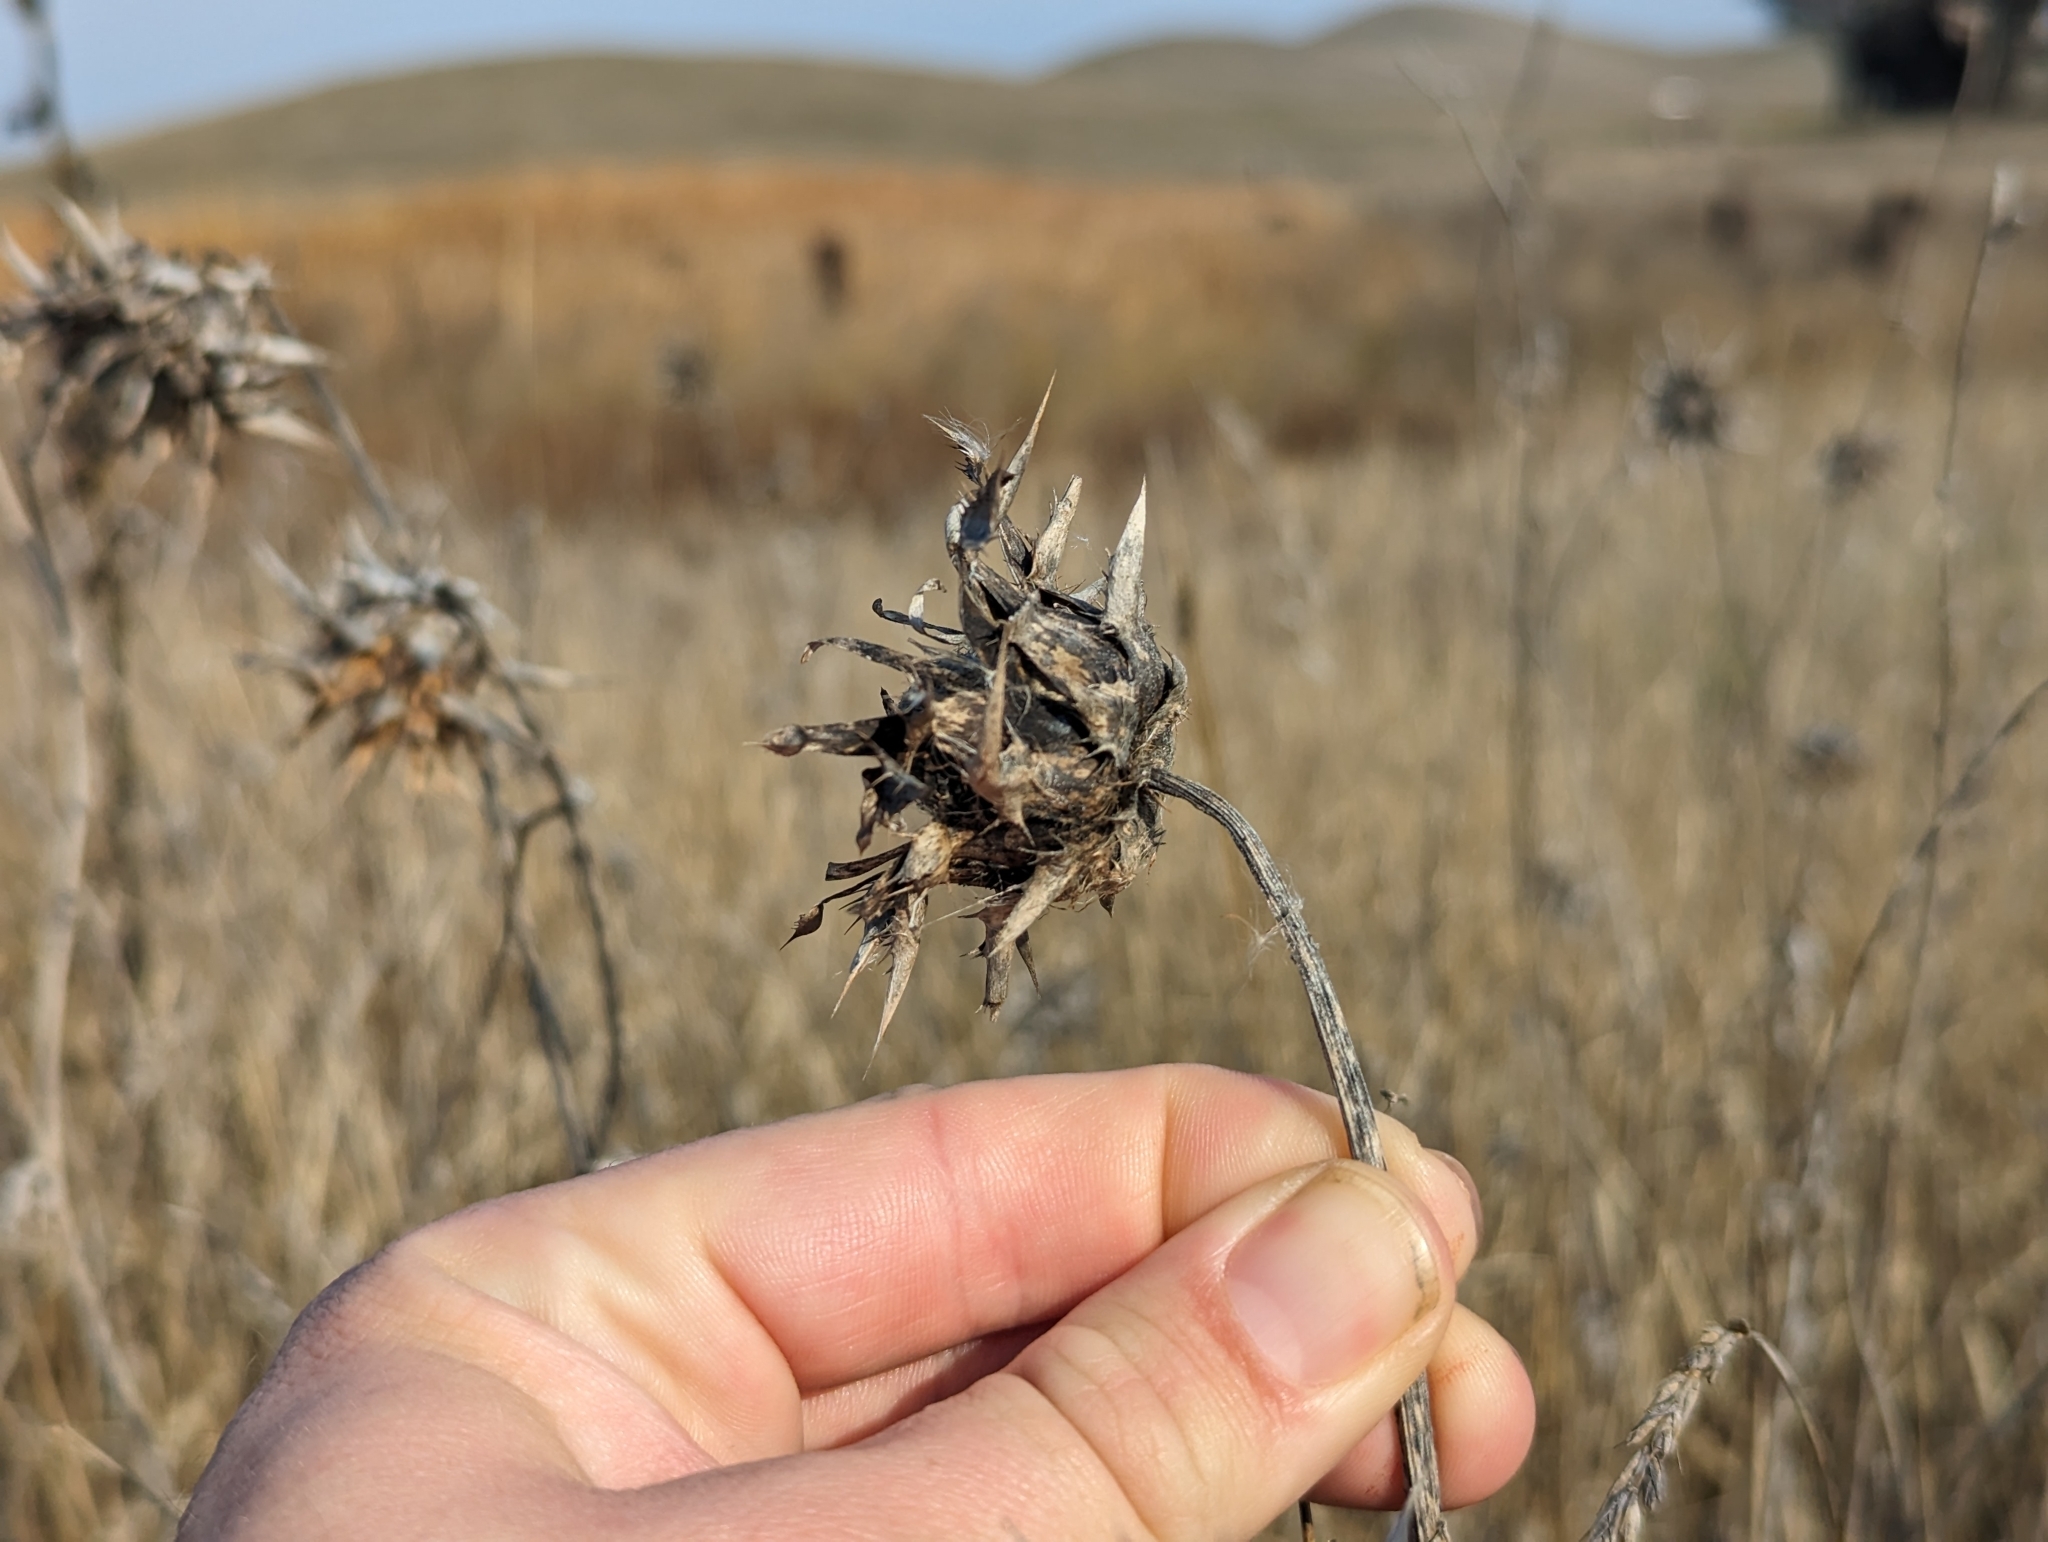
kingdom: Plantae
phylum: Tracheophyta
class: Magnoliopsida
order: Asterales
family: Asteraceae
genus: Silybum
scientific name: Silybum marianum
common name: Milk thistle
